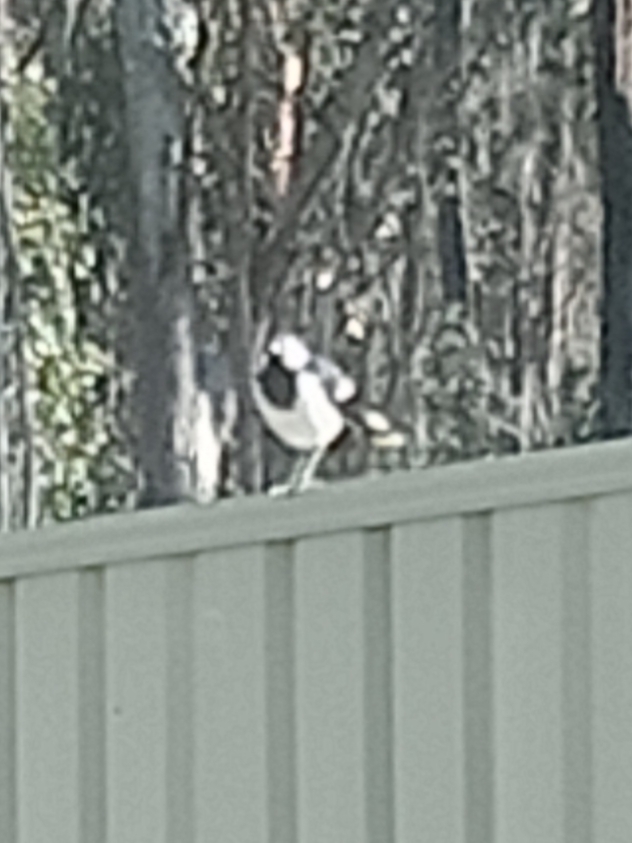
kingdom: Animalia
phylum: Chordata
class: Aves
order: Passeriformes
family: Monarchidae
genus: Grallina
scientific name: Grallina cyanoleuca
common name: Magpie-lark
